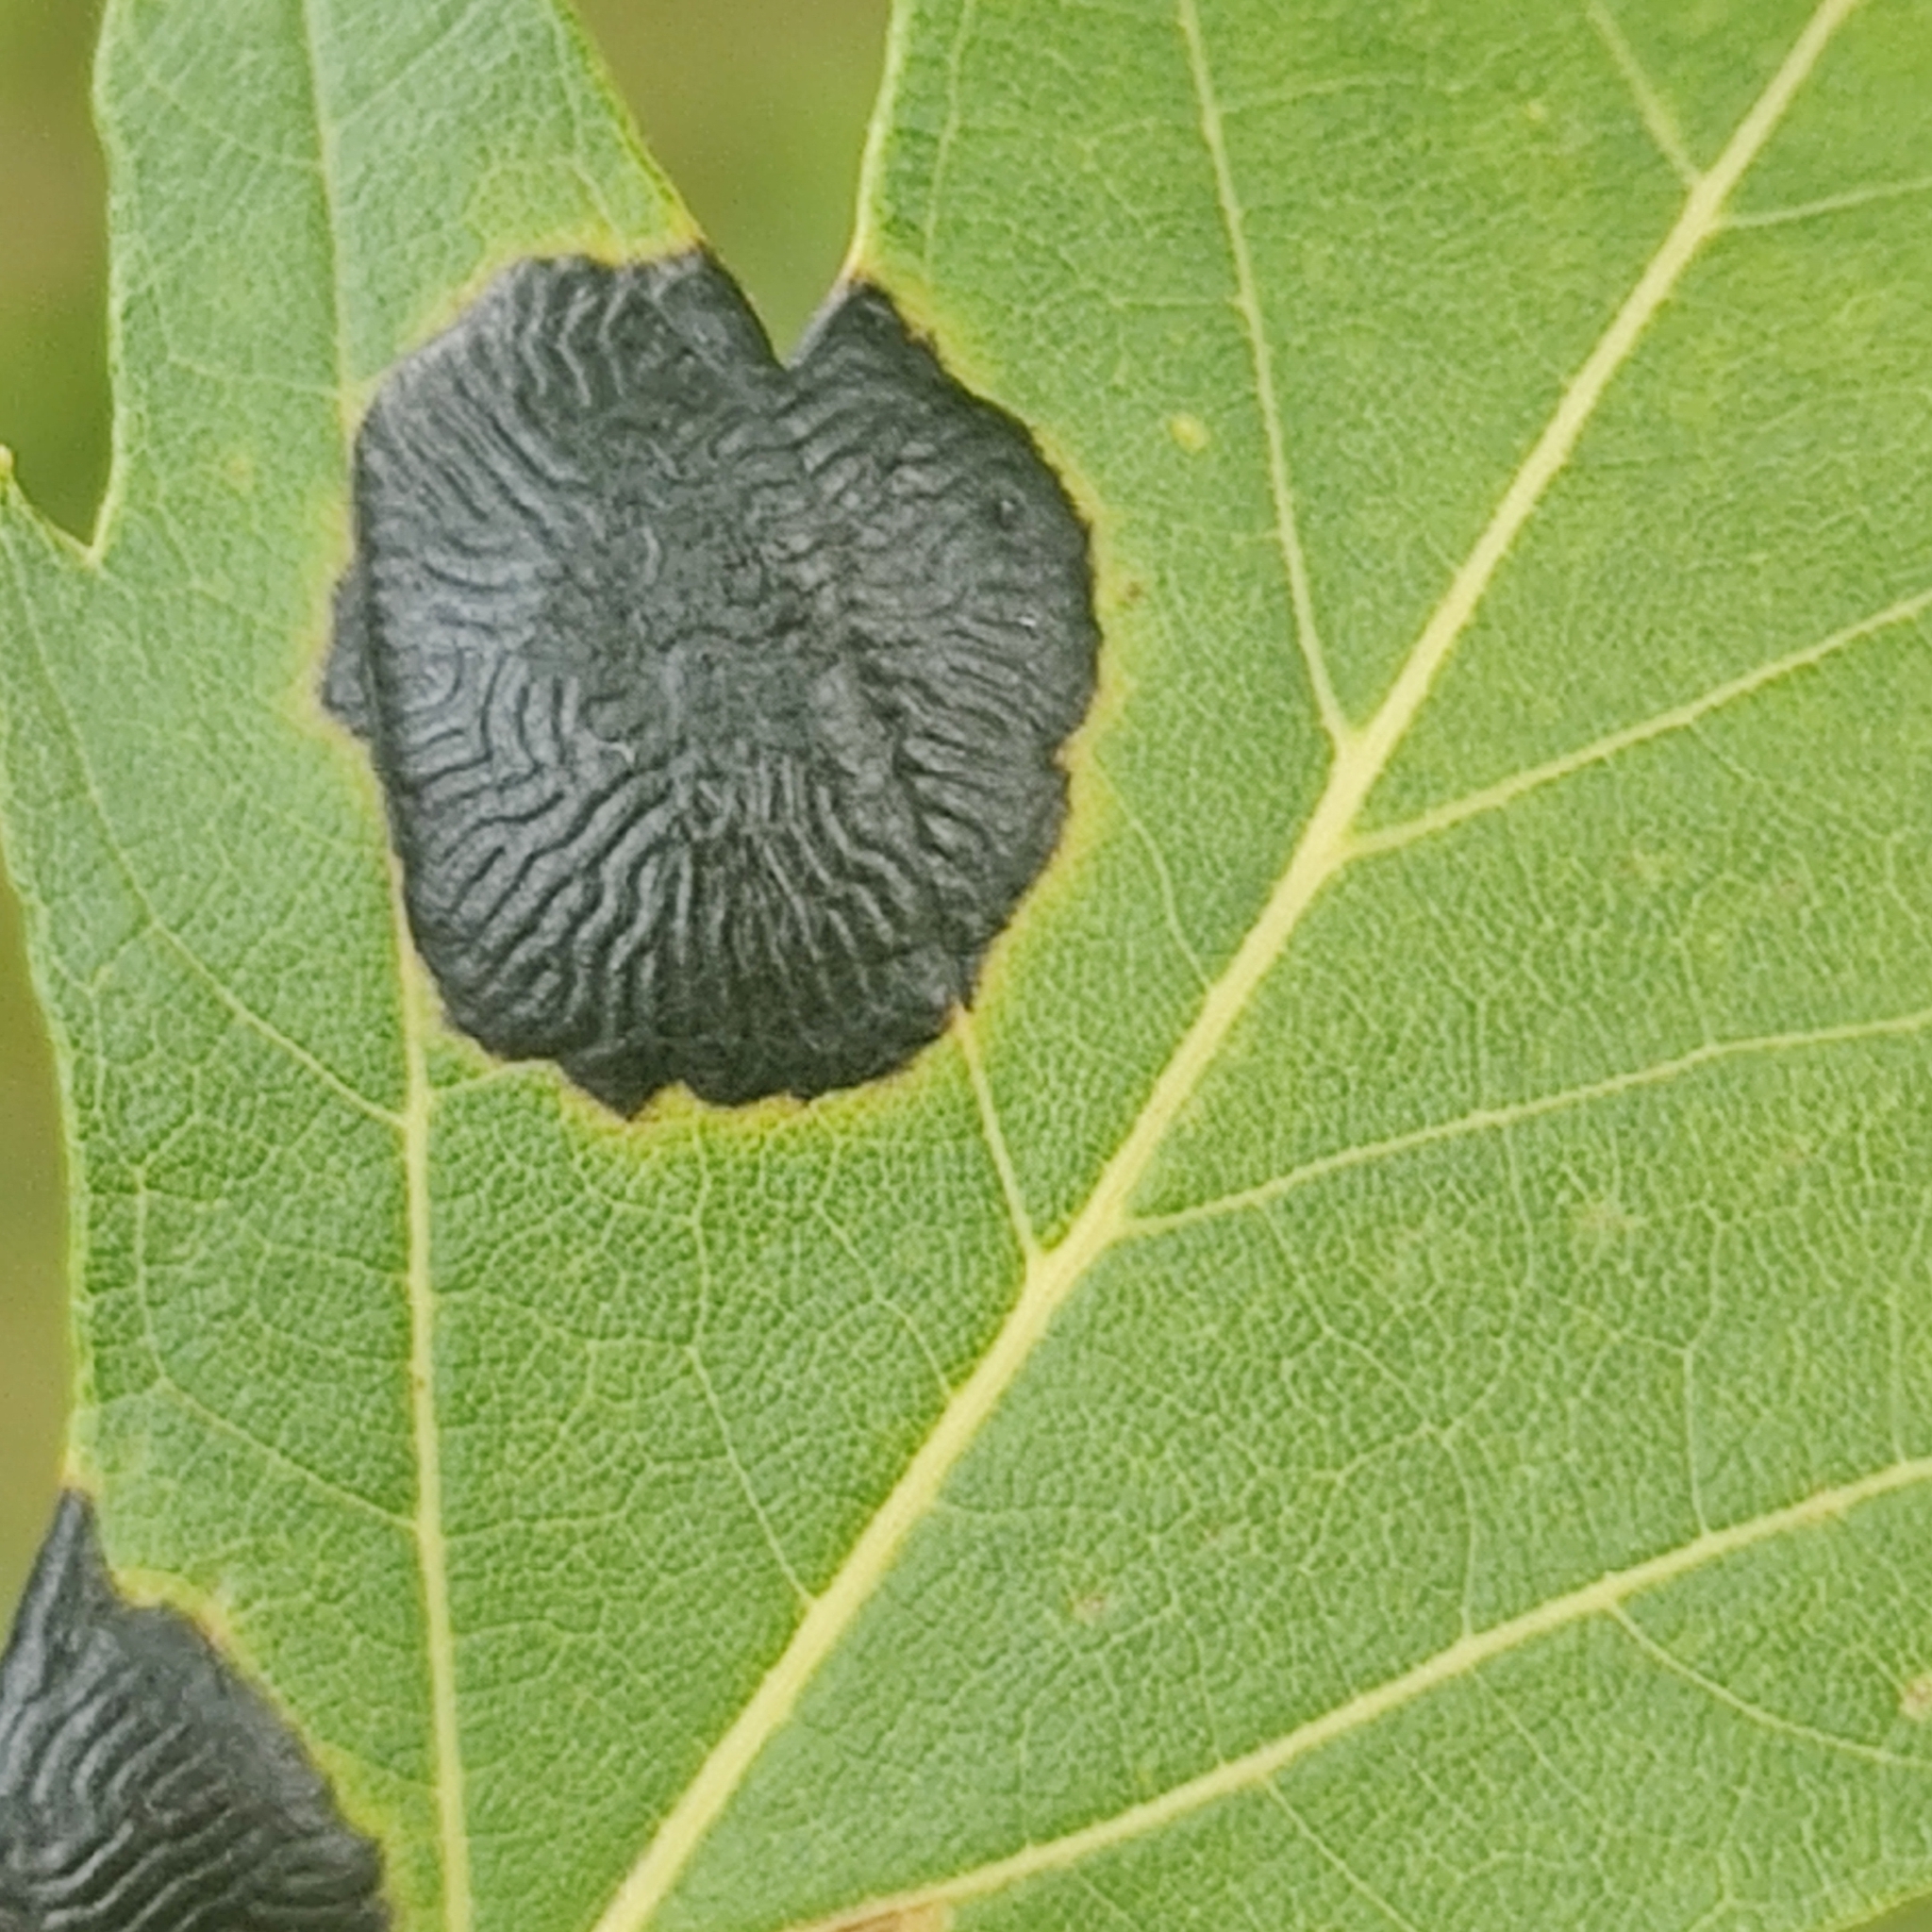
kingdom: Fungi
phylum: Ascomycota
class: Leotiomycetes
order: Rhytismatales
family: Rhytismataceae
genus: Rhytisma
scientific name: Rhytisma americanum
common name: American tar spot
